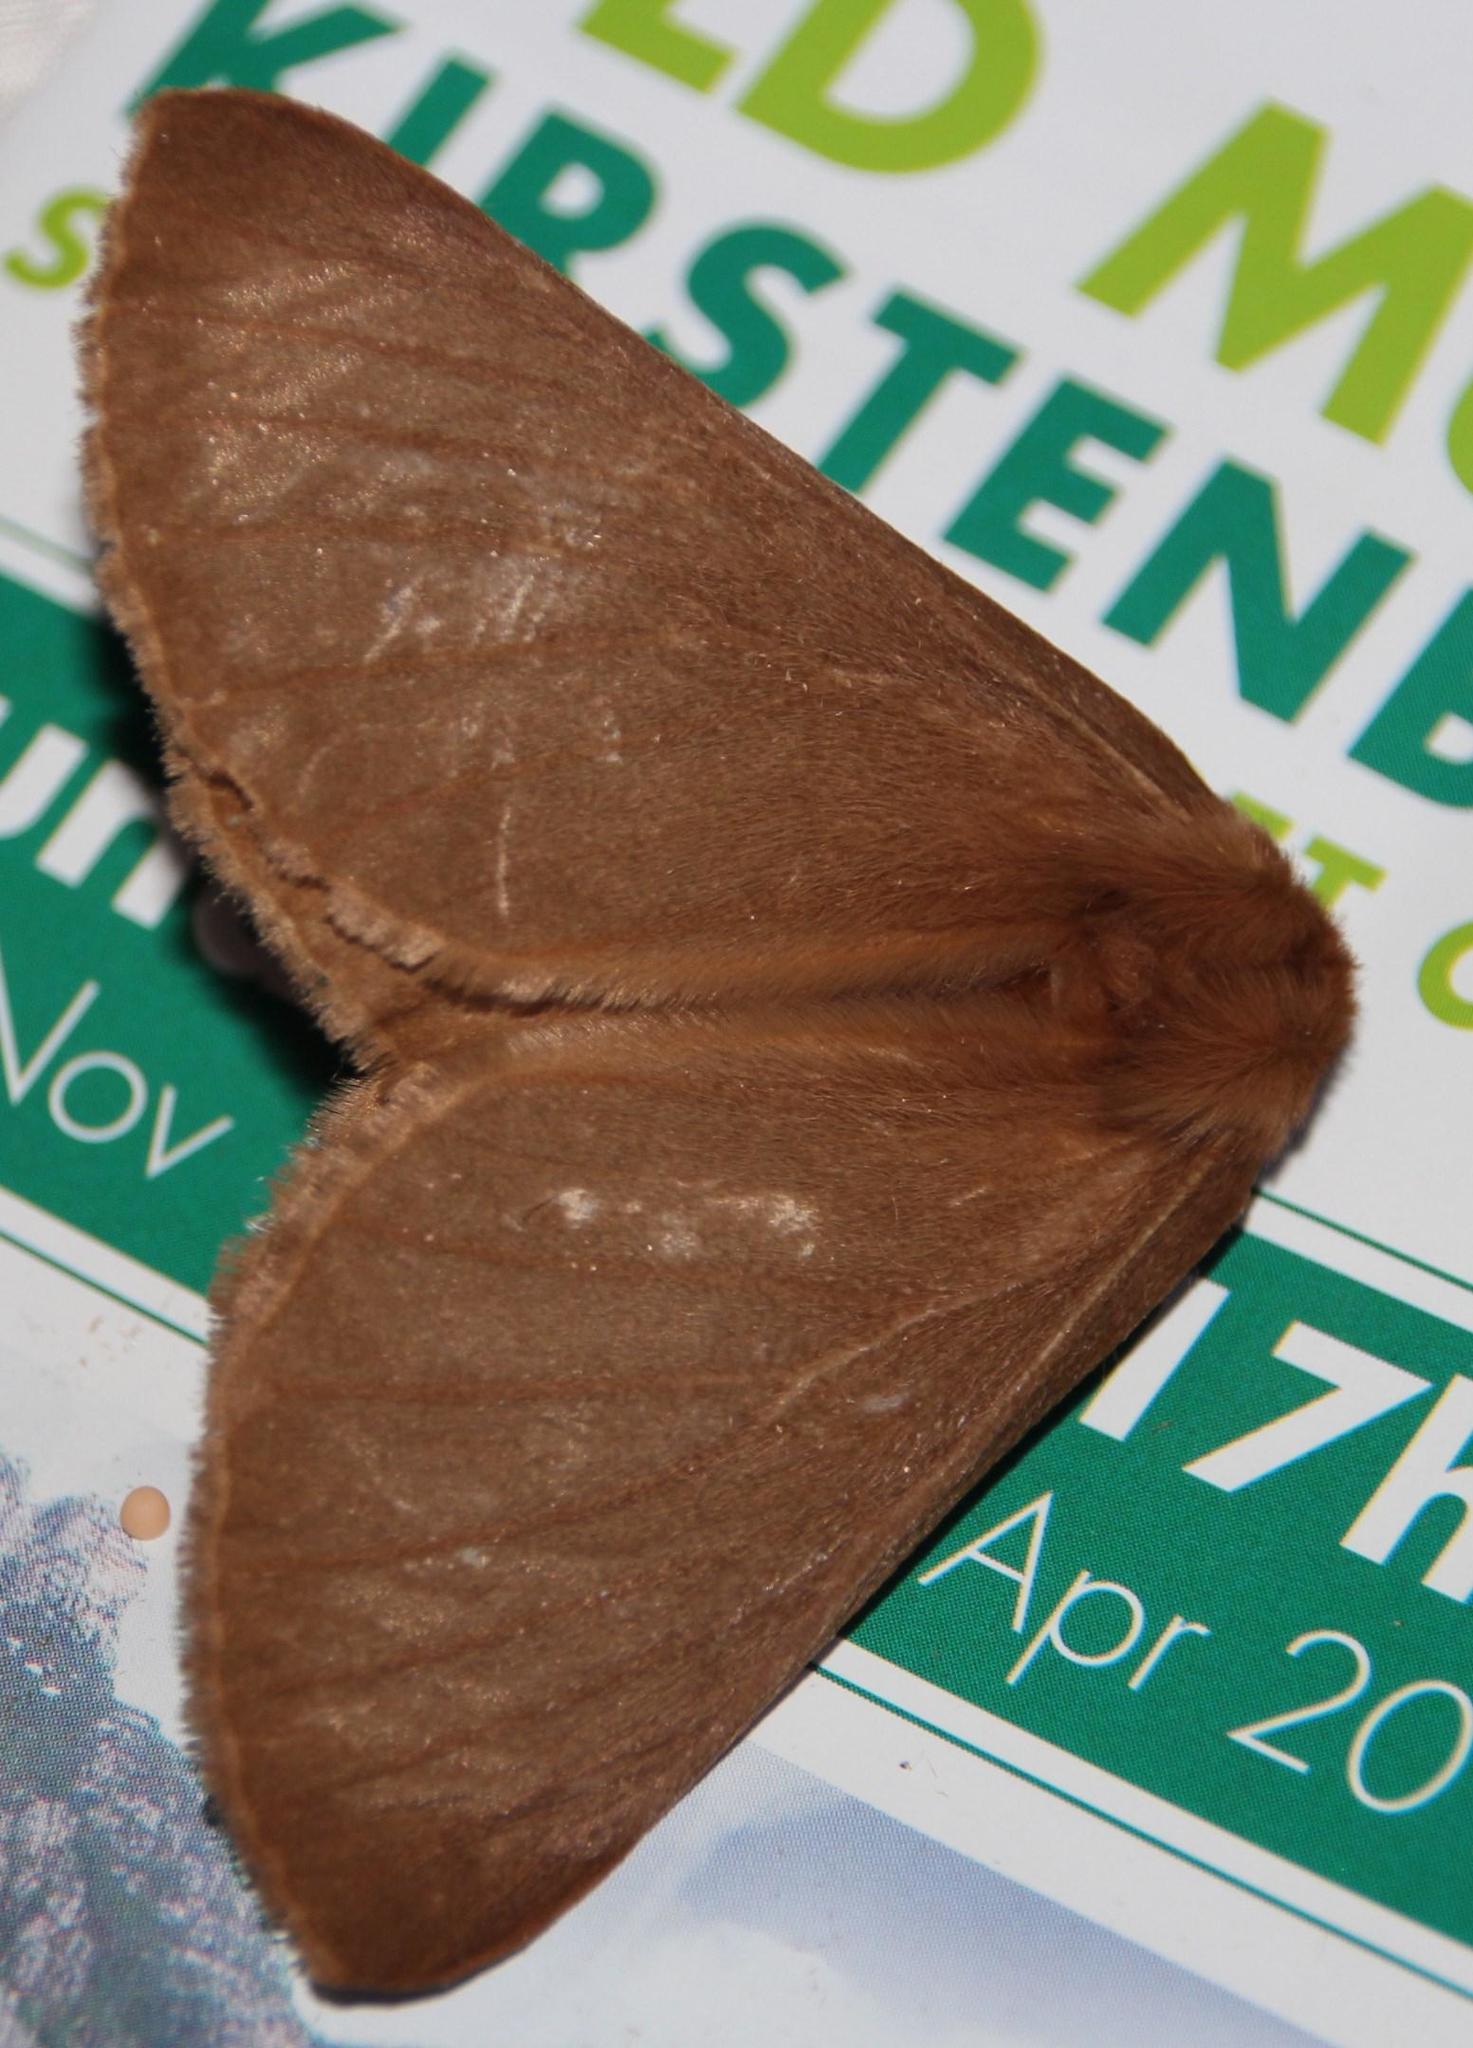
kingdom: Animalia
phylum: Arthropoda
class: Insecta
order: Lepidoptera
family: Eupterotidae
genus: Phyllalia
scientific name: Phyllalia patens
